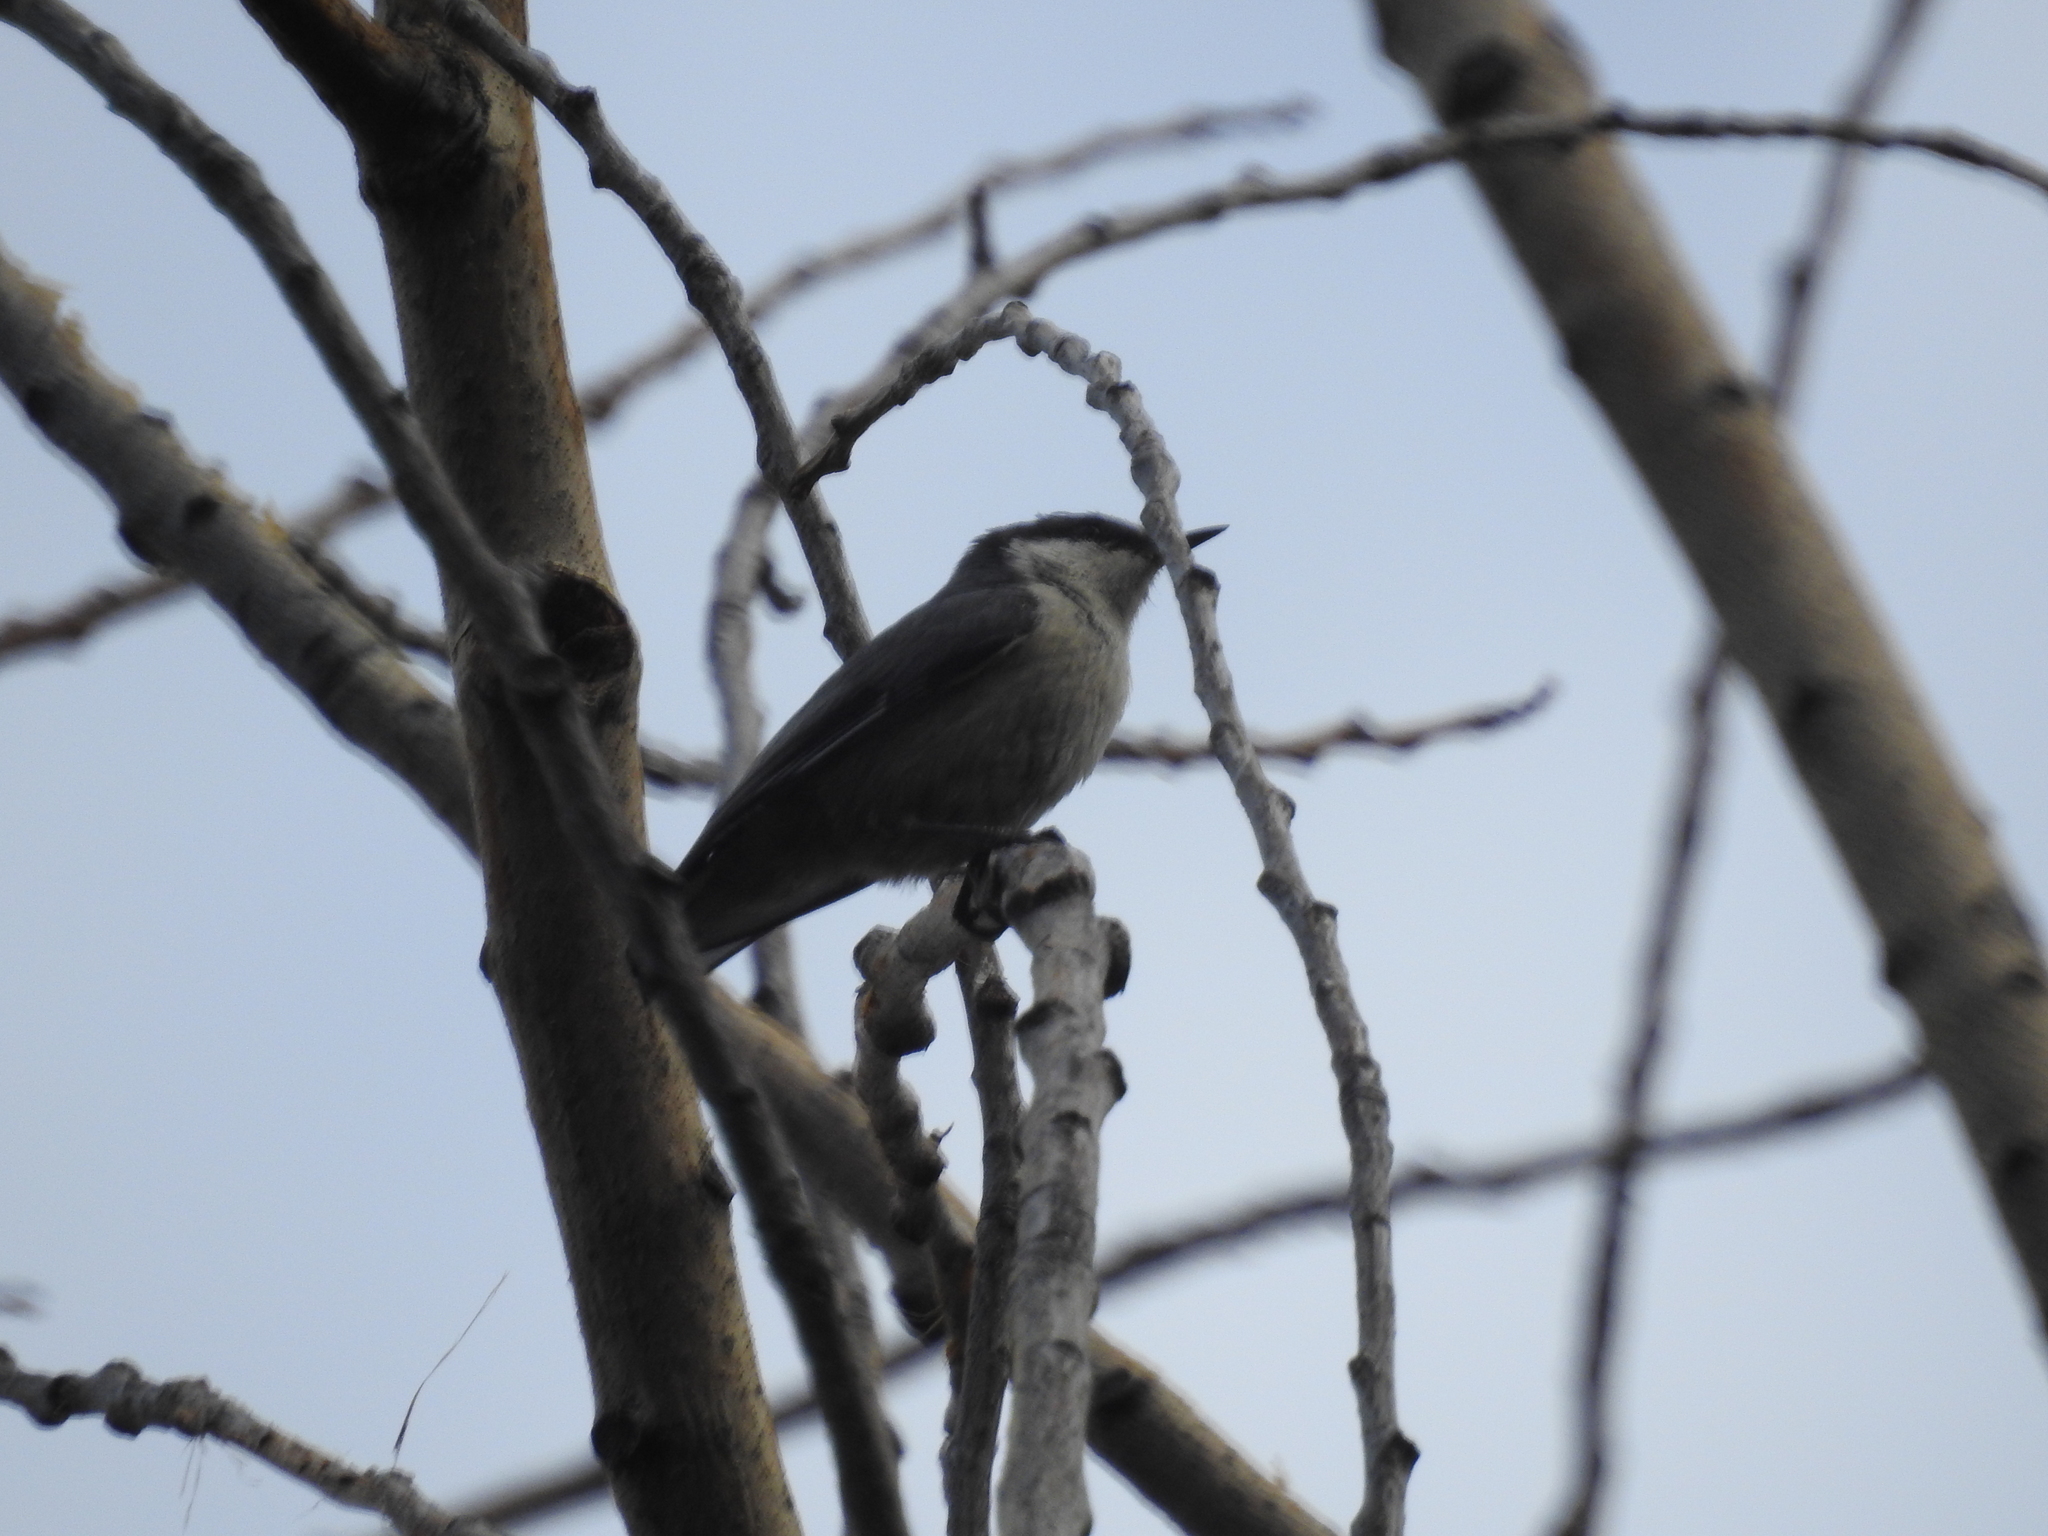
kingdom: Animalia
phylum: Chordata
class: Aves
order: Passeriformes
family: Sittidae
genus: Sitta
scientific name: Sitta pygmaea
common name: Pygmy nuthatch
